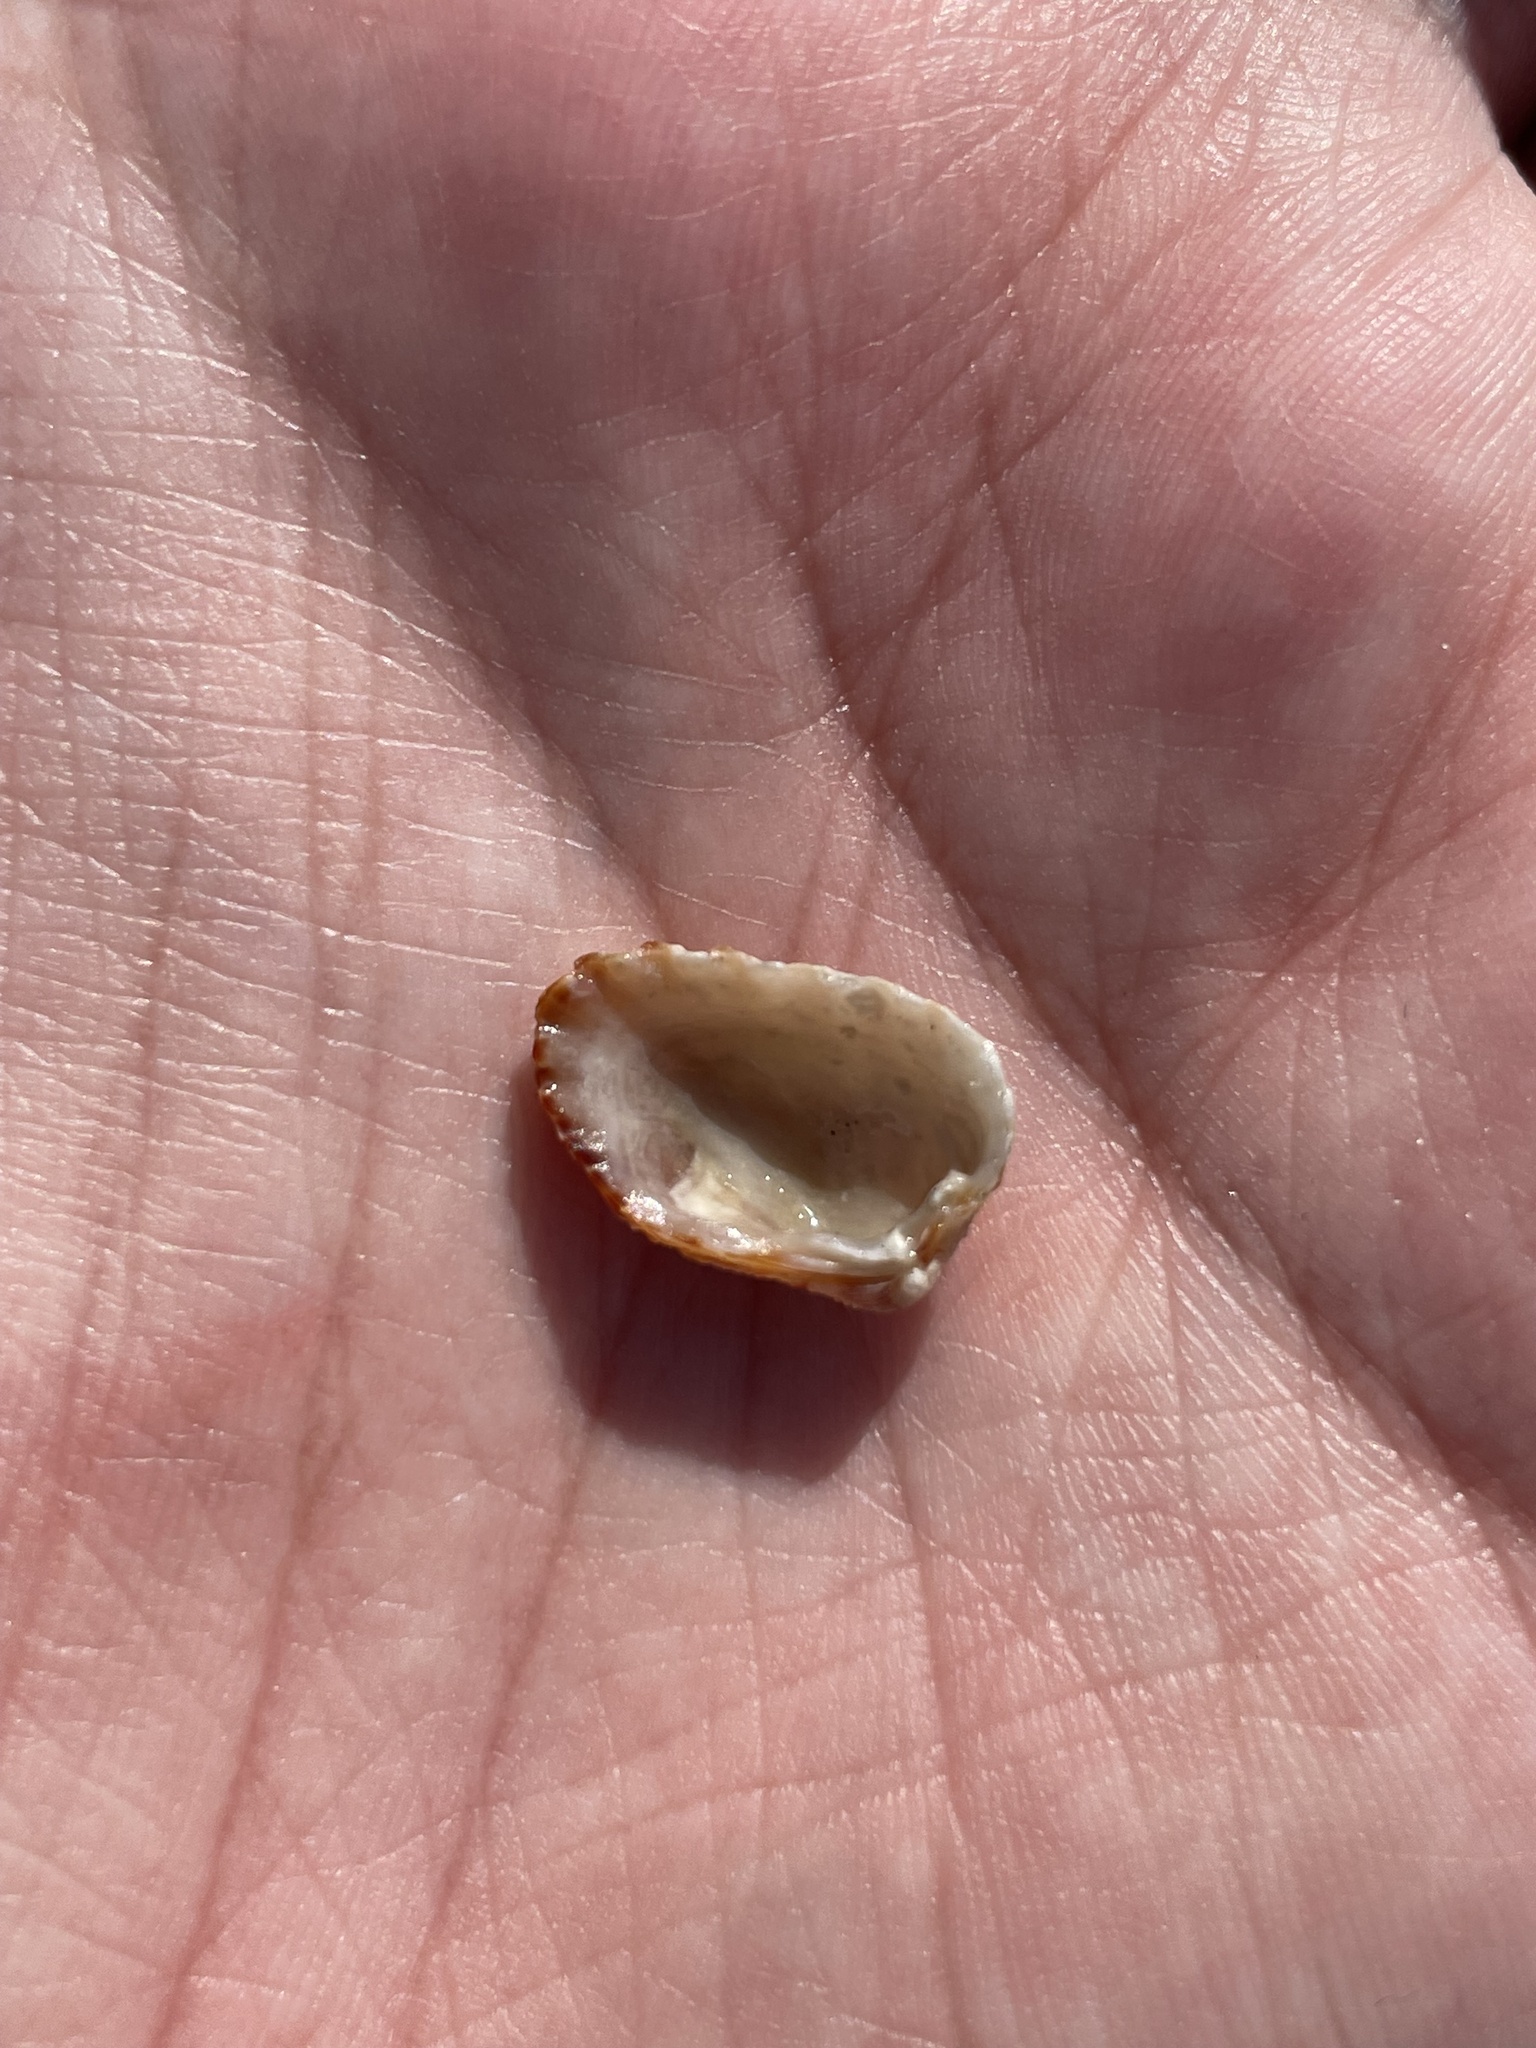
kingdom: Animalia
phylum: Mollusca
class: Bivalvia
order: Carditida
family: Carditidae
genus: Cardites
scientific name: Cardites floridanus
